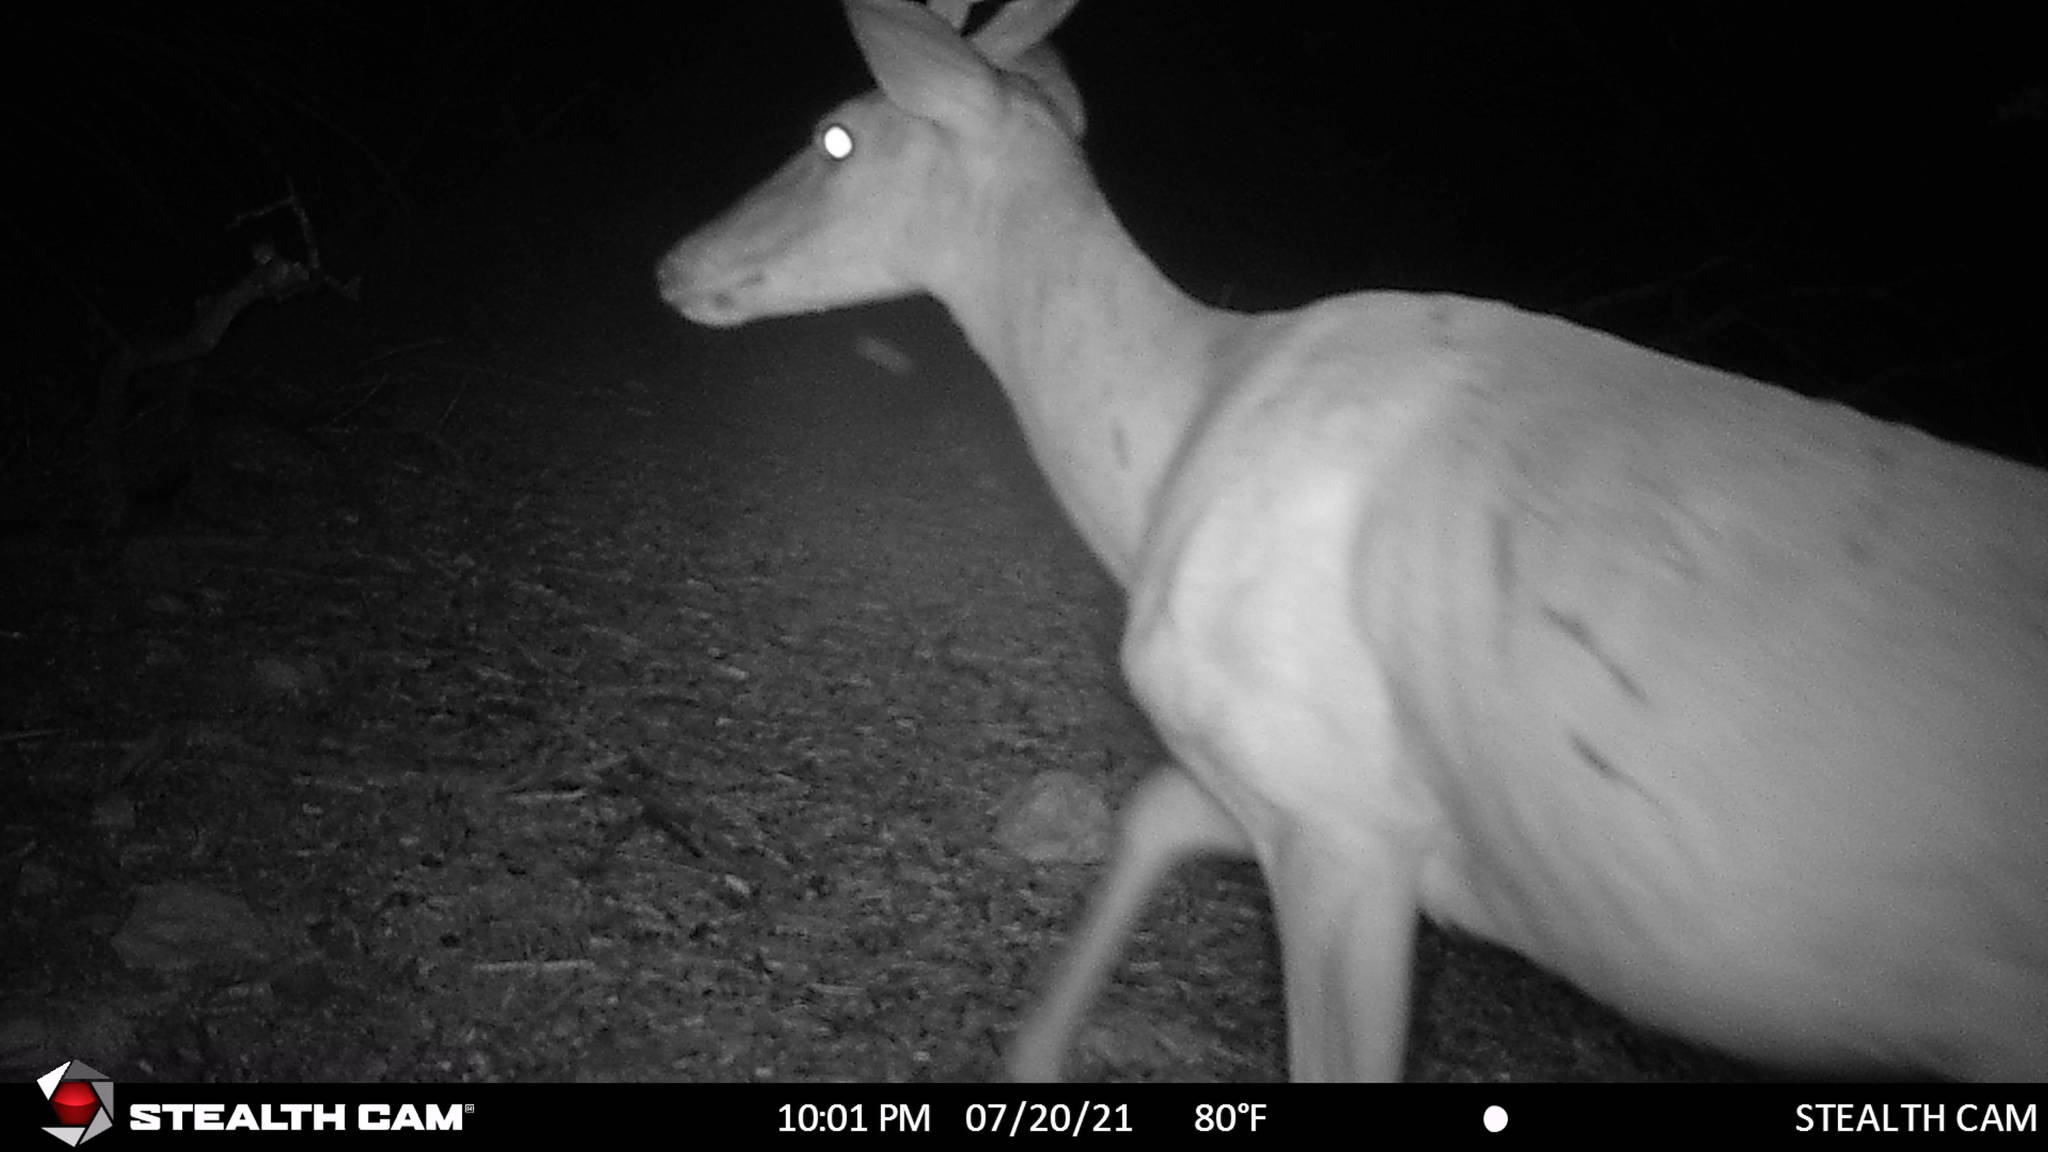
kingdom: Animalia
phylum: Chordata
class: Mammalia
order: Artiodactyla
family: Cervidae
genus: Odocoileus
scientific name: Odocoileus virginianus
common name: White-tailed deer
